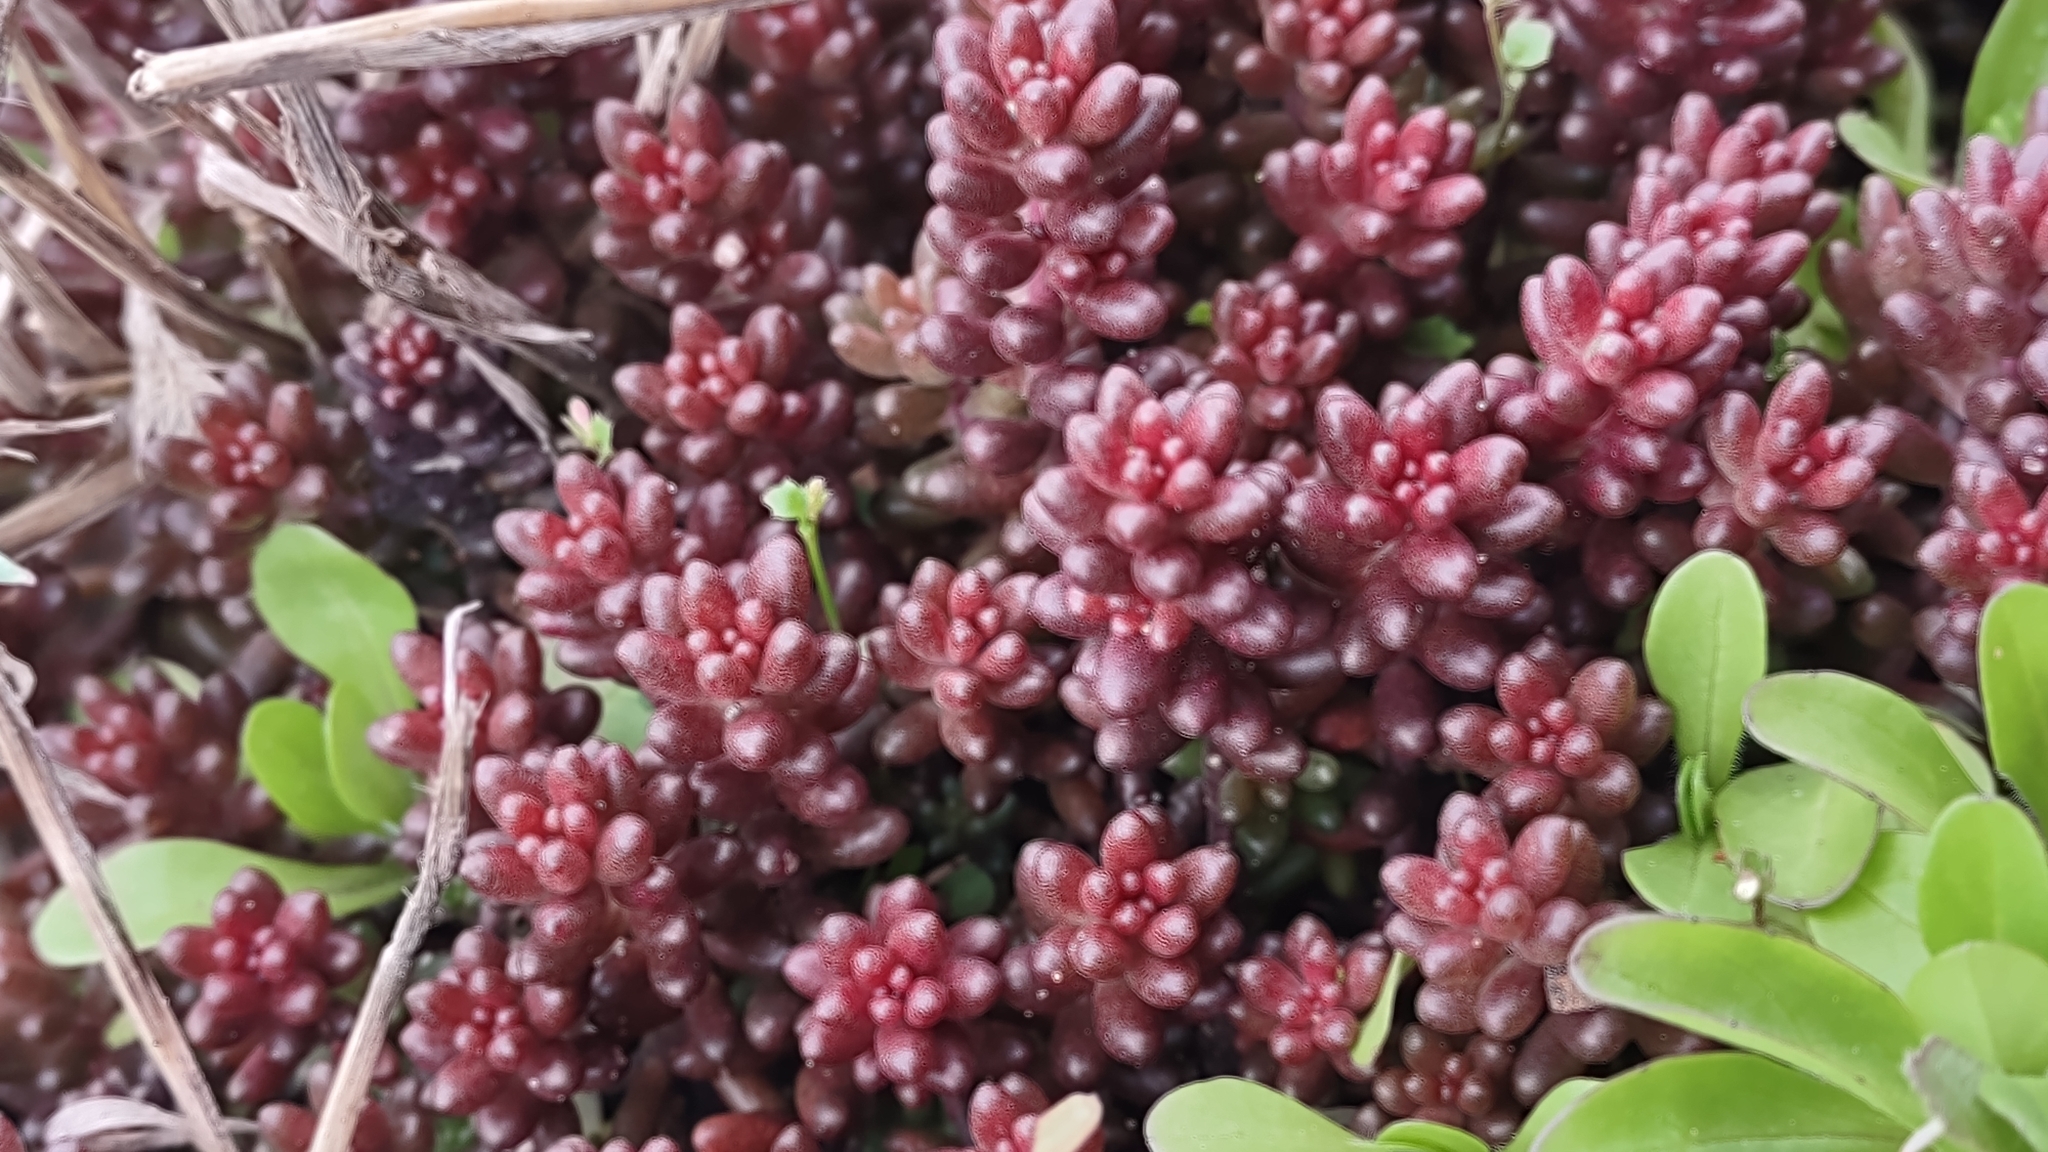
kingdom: Plantae
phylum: Tracheophyta
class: Magnoliopsida
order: Saxifragales
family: Crassulaceae
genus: Sedum
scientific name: Sedum album
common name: White stonecrop
